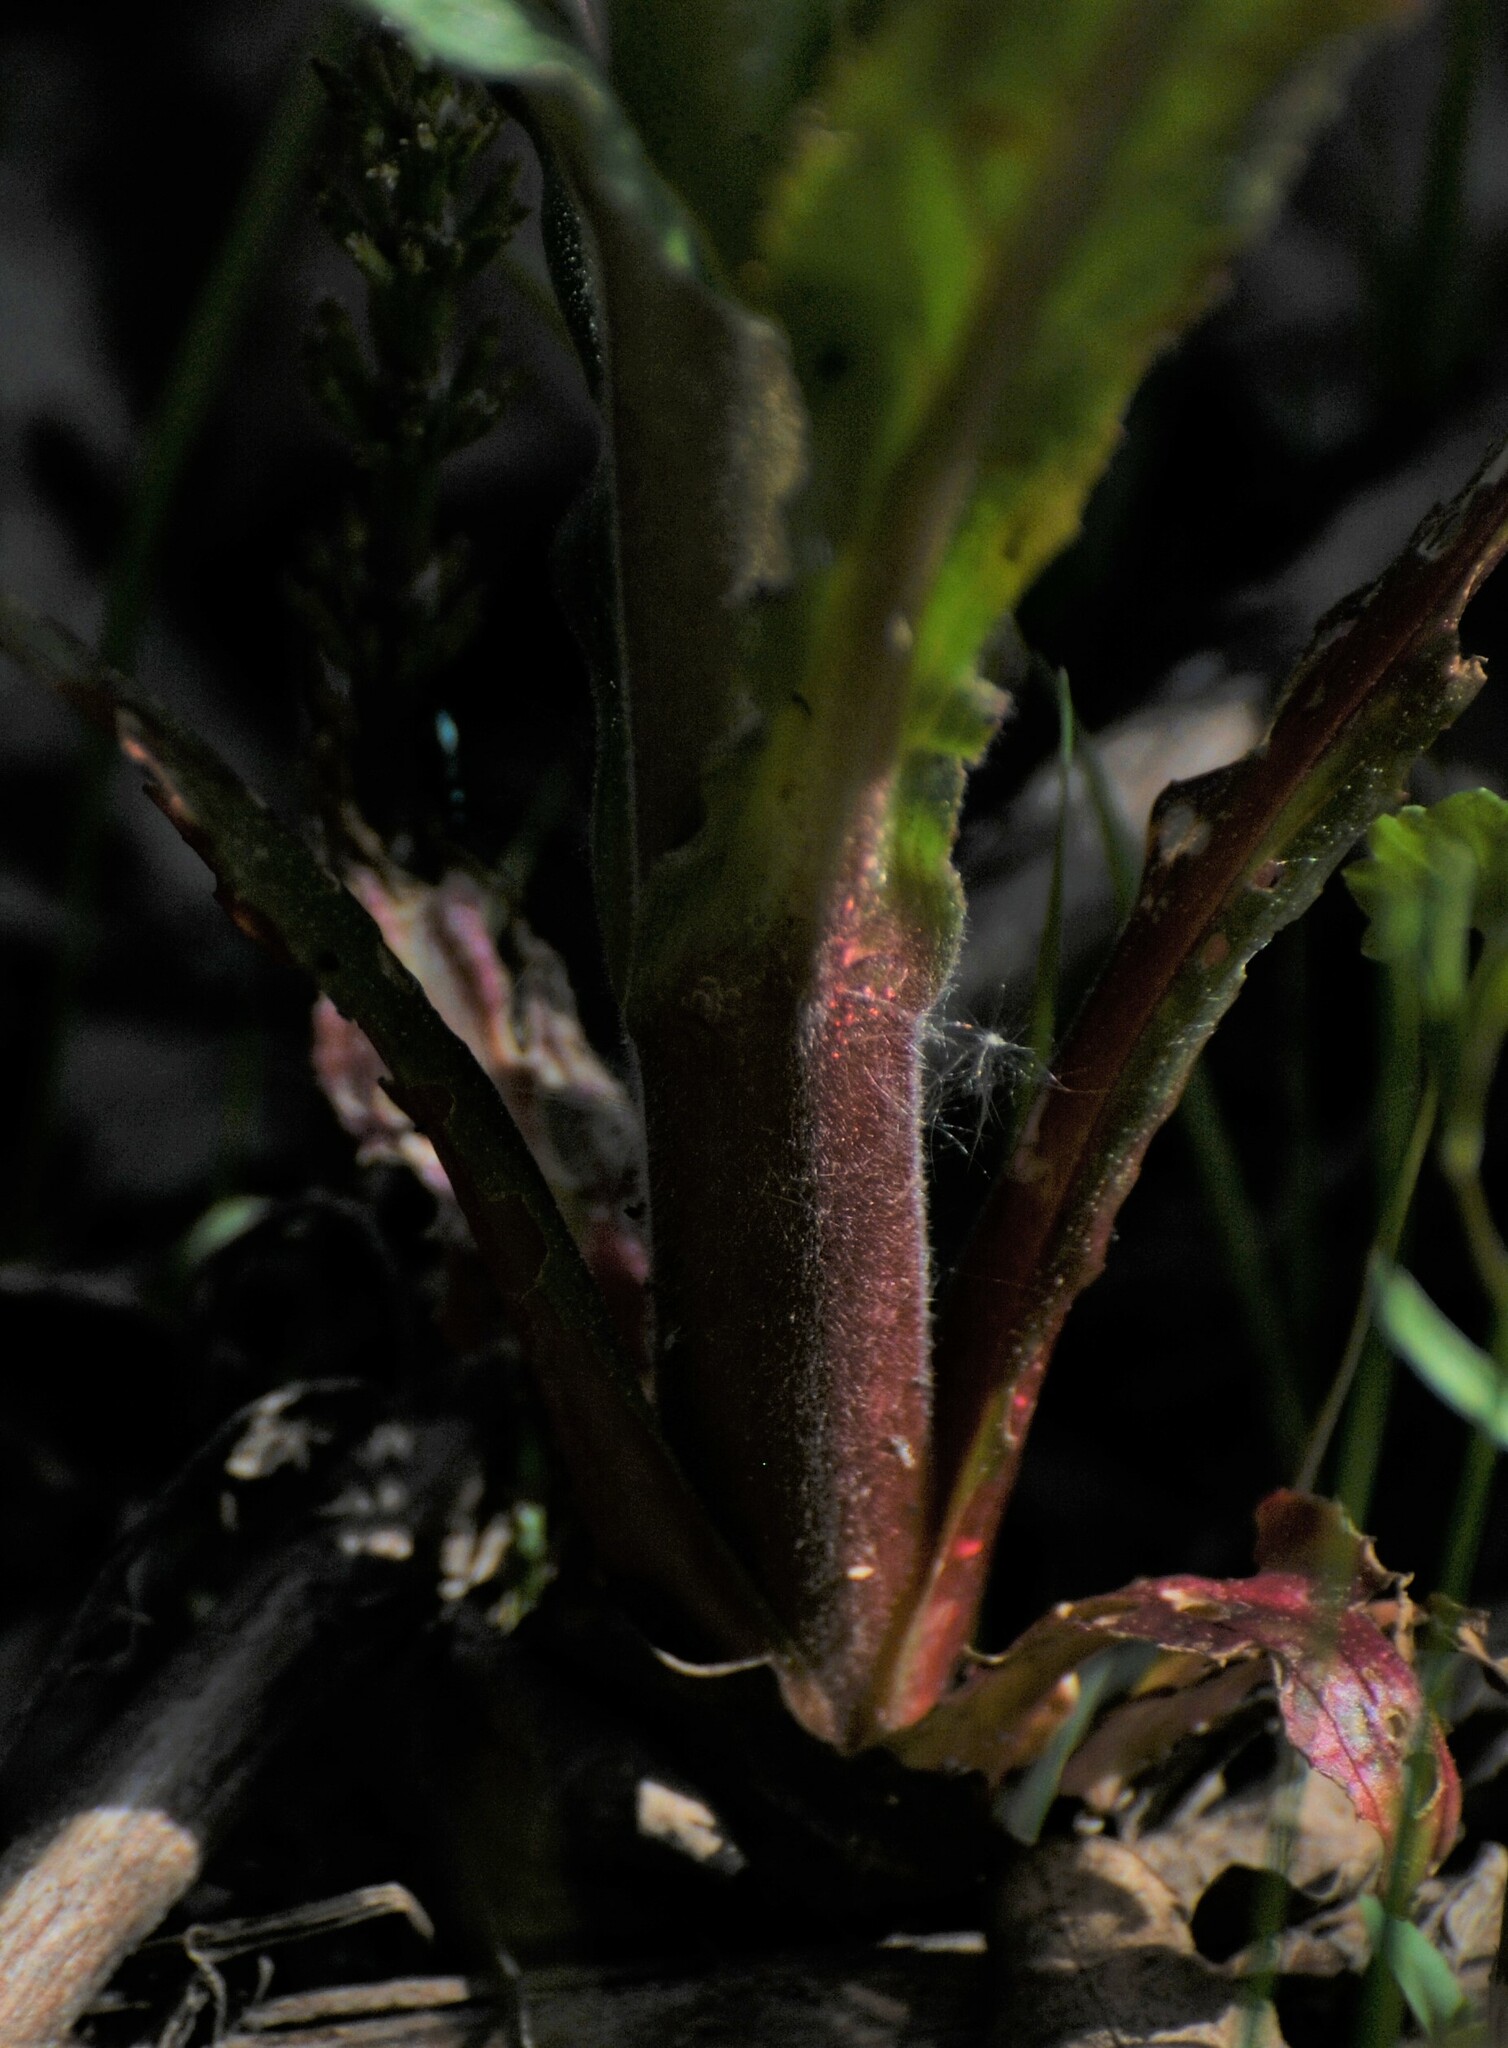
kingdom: Plantae
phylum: Tracheophyta
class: Magnoliopsida
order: Myrtales
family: Onagraceae
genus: Epilobium
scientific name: Epilobium hirsutum
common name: Great willowherb
